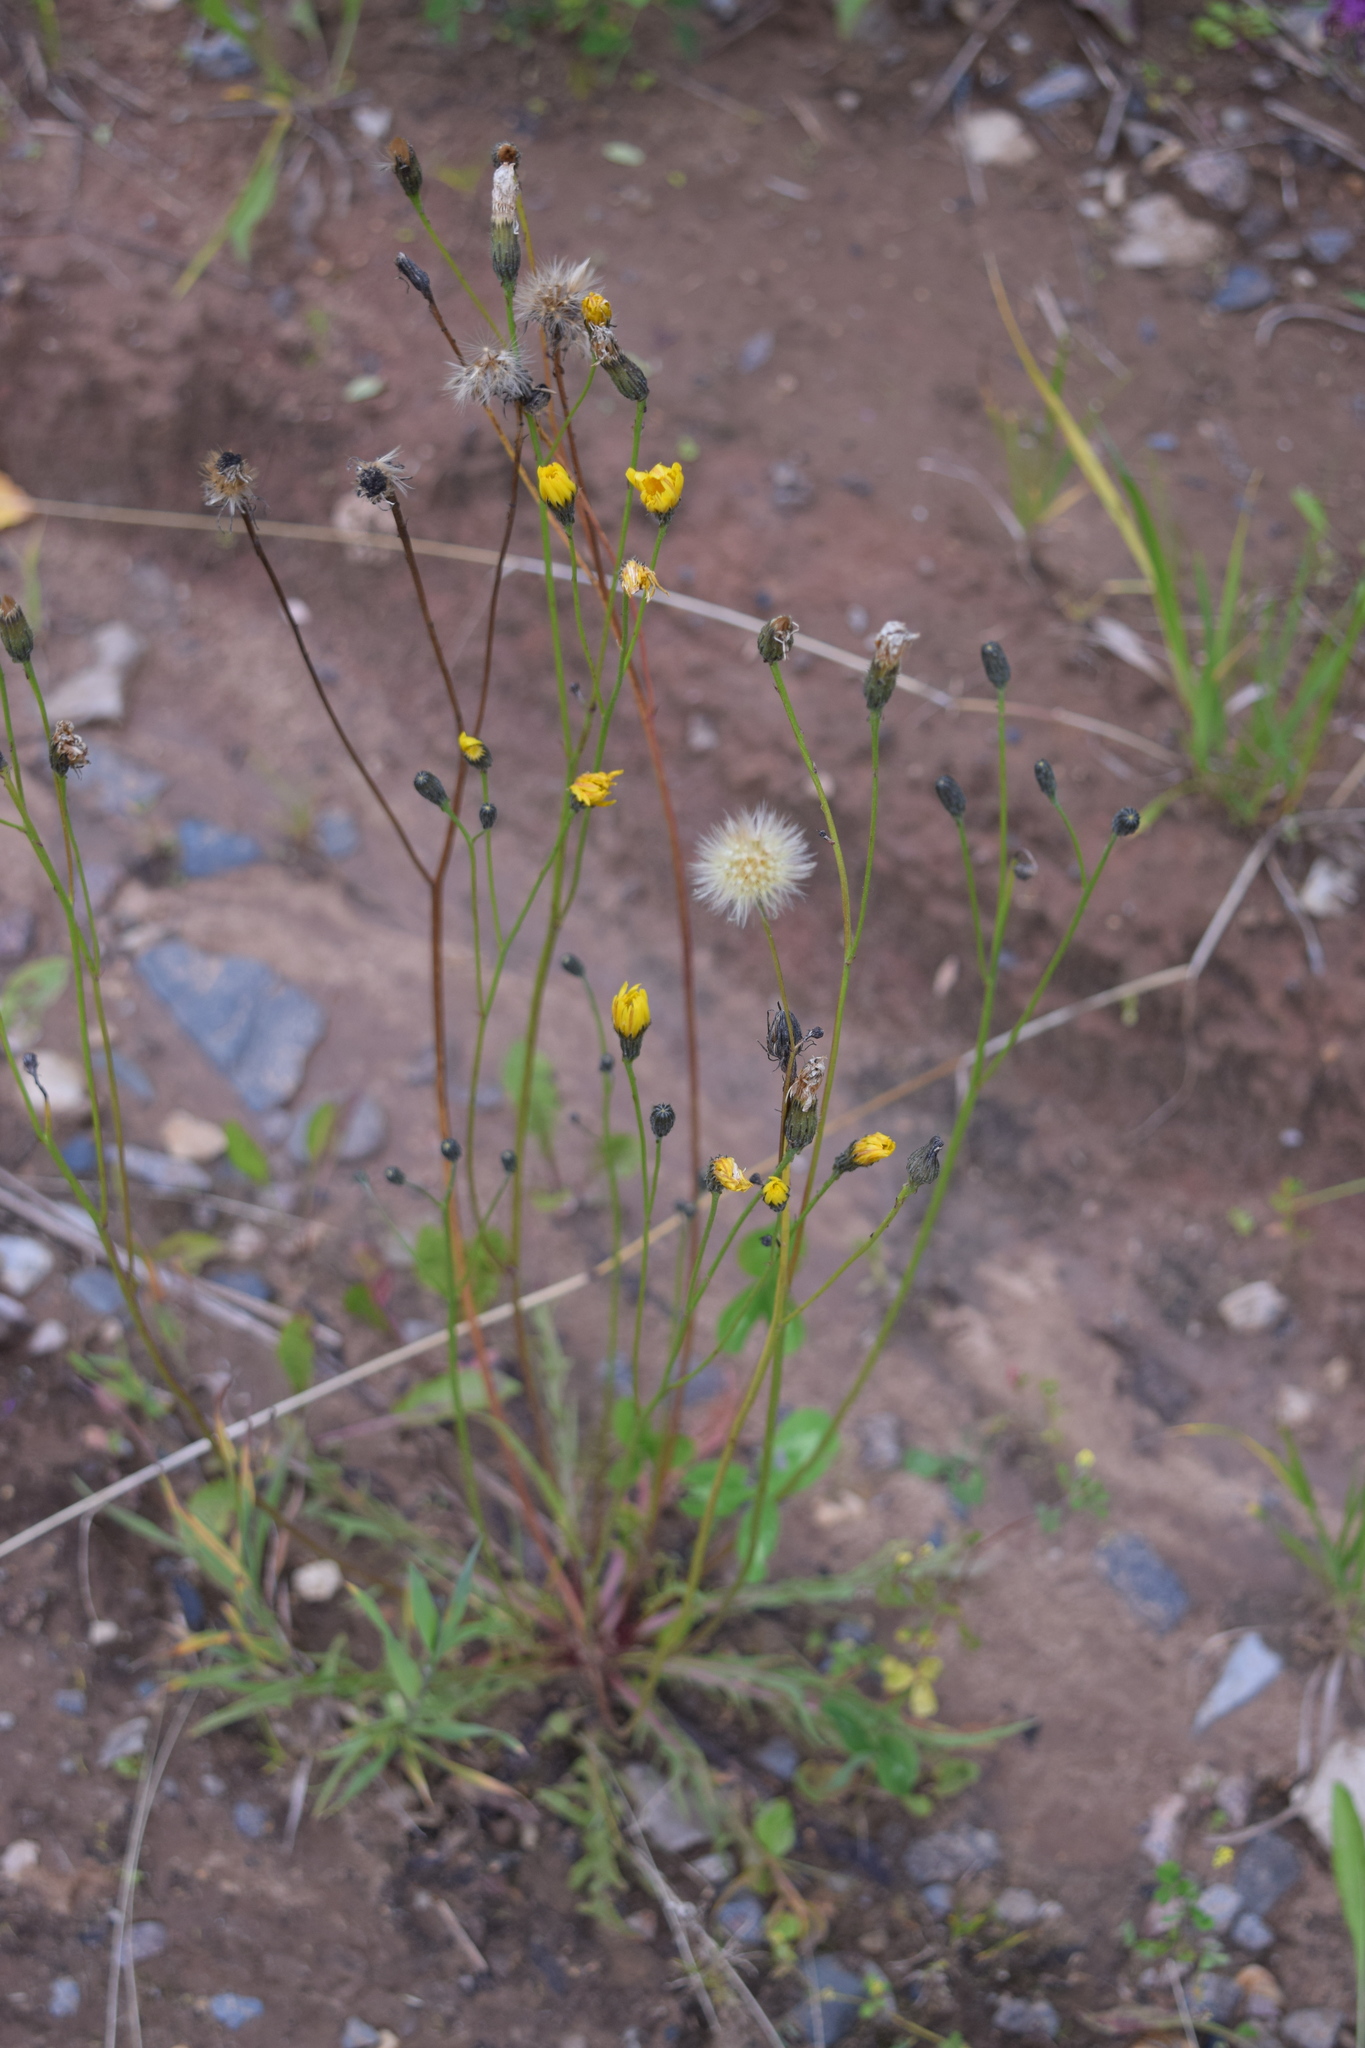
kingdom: Plantae
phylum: Tracheophyta
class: Magnoliopsida
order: Asterales
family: Asteraceae
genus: Scorzoneroides
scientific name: Scorzoneroides autumnalis
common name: Autumn hawkbit
